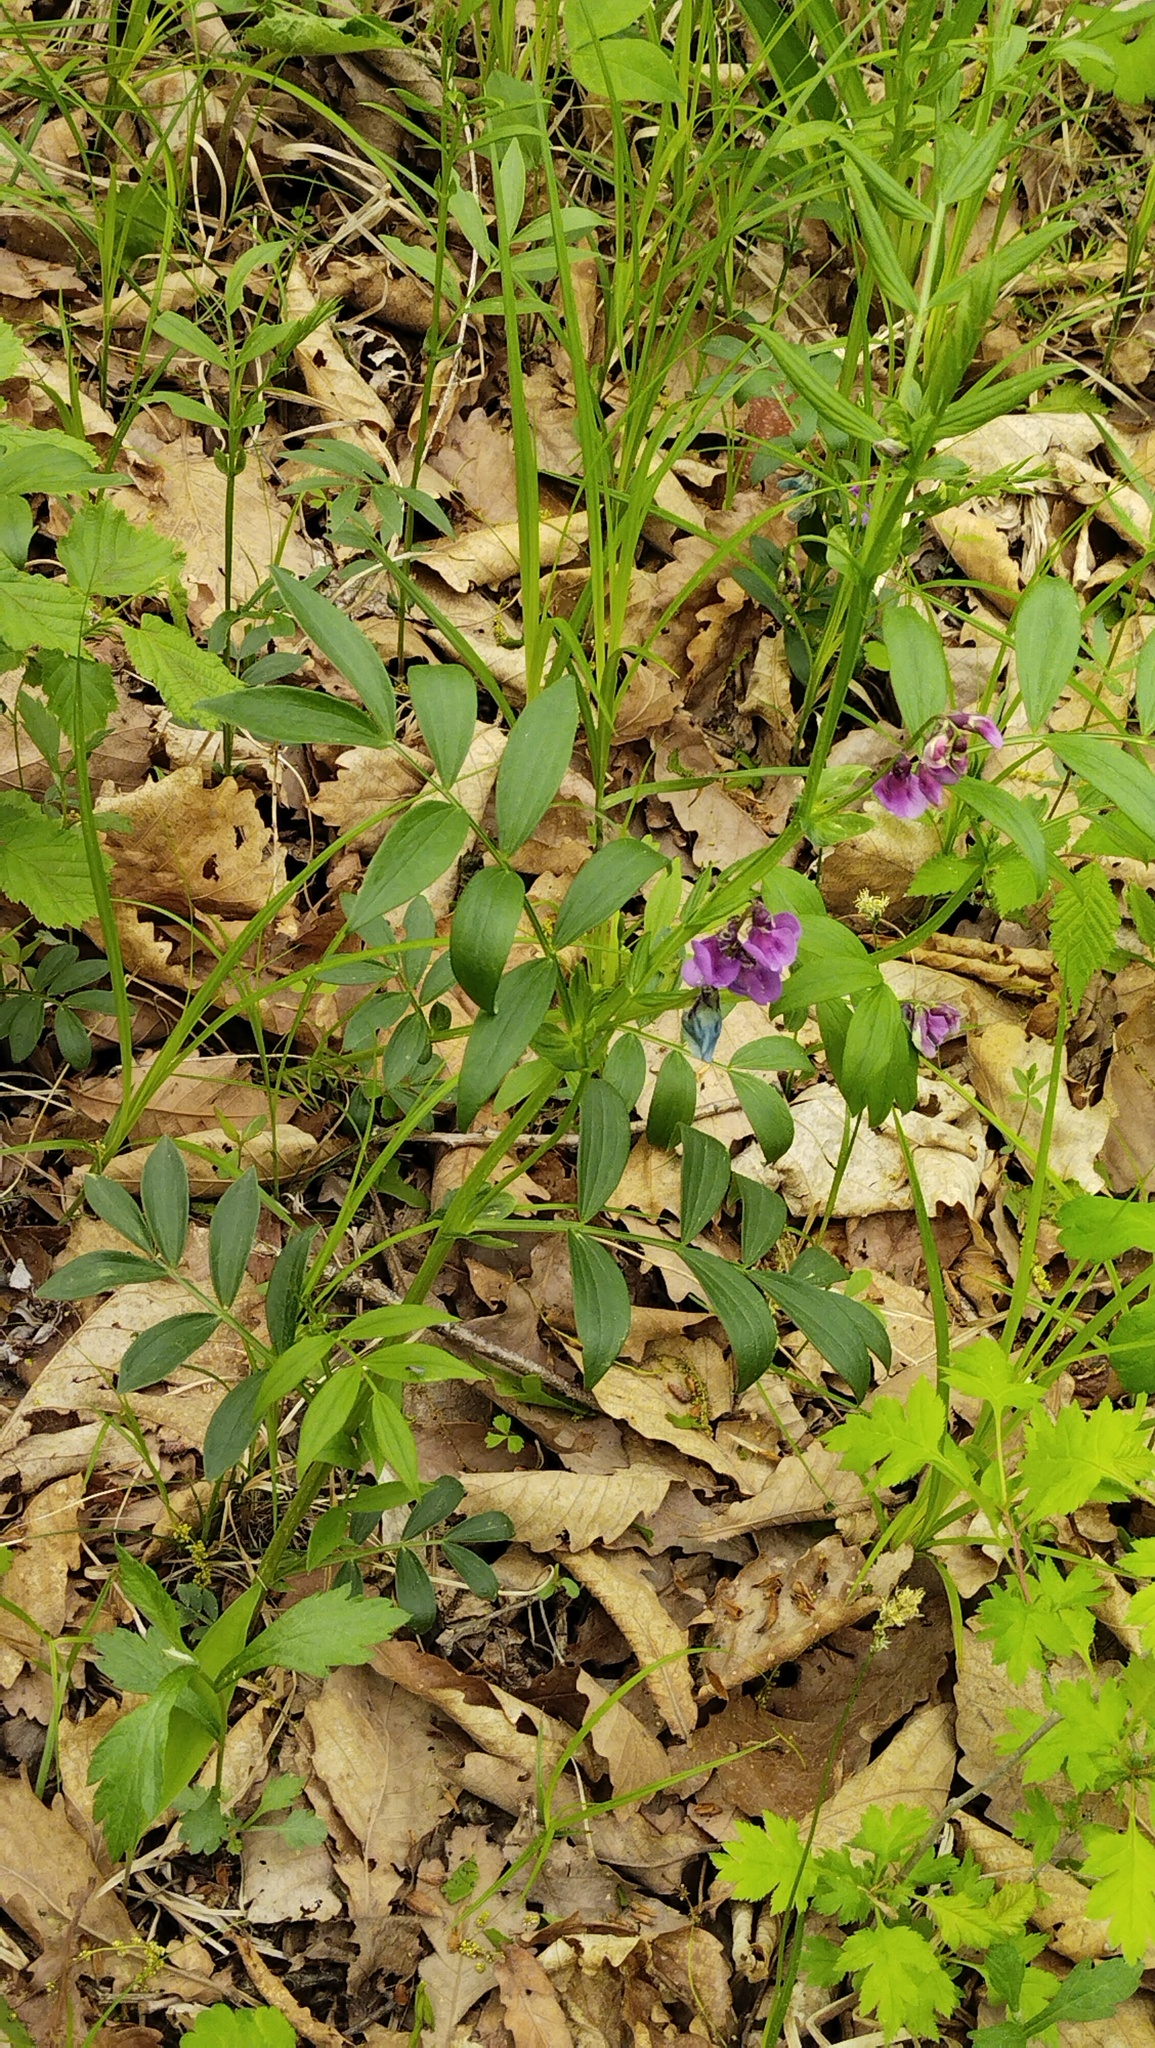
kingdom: Plantae
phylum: Tracheophyta
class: Magnoliopsida
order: Fabales
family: Fabaceae
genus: Lathyrus
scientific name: Lathyrus komarovii
